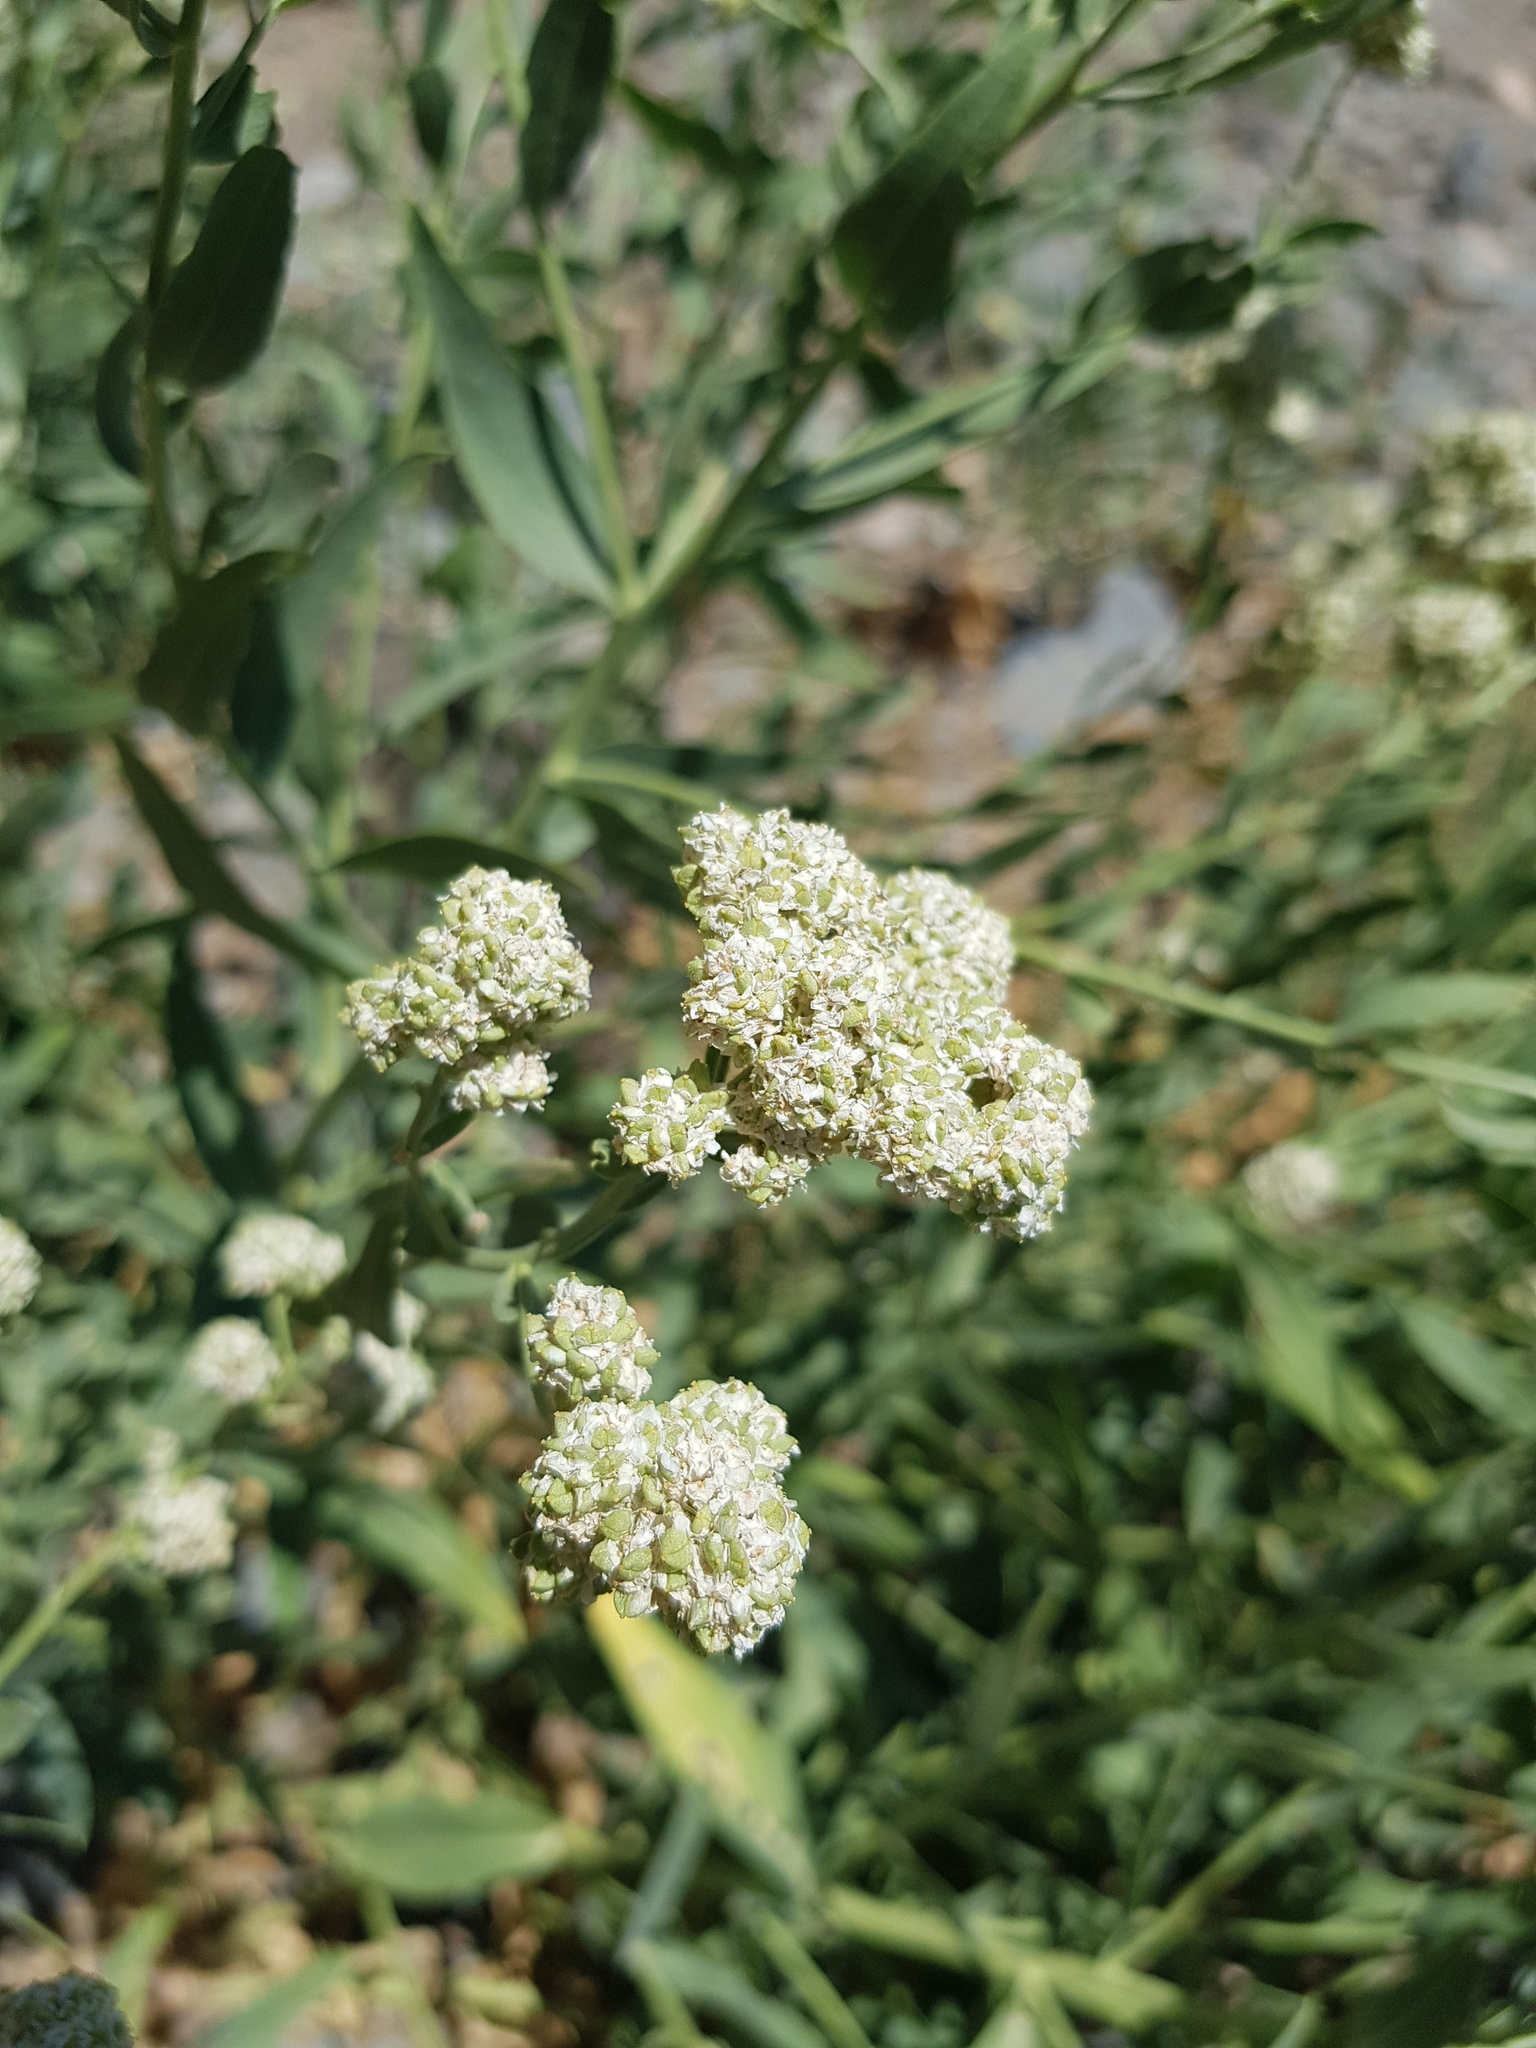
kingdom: Plantae
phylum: Tracheophyta
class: Magnoliopsida
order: Brassicales
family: Brassicaceae
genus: Lepidium
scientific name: Lepidium latifolium
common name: Dittander
